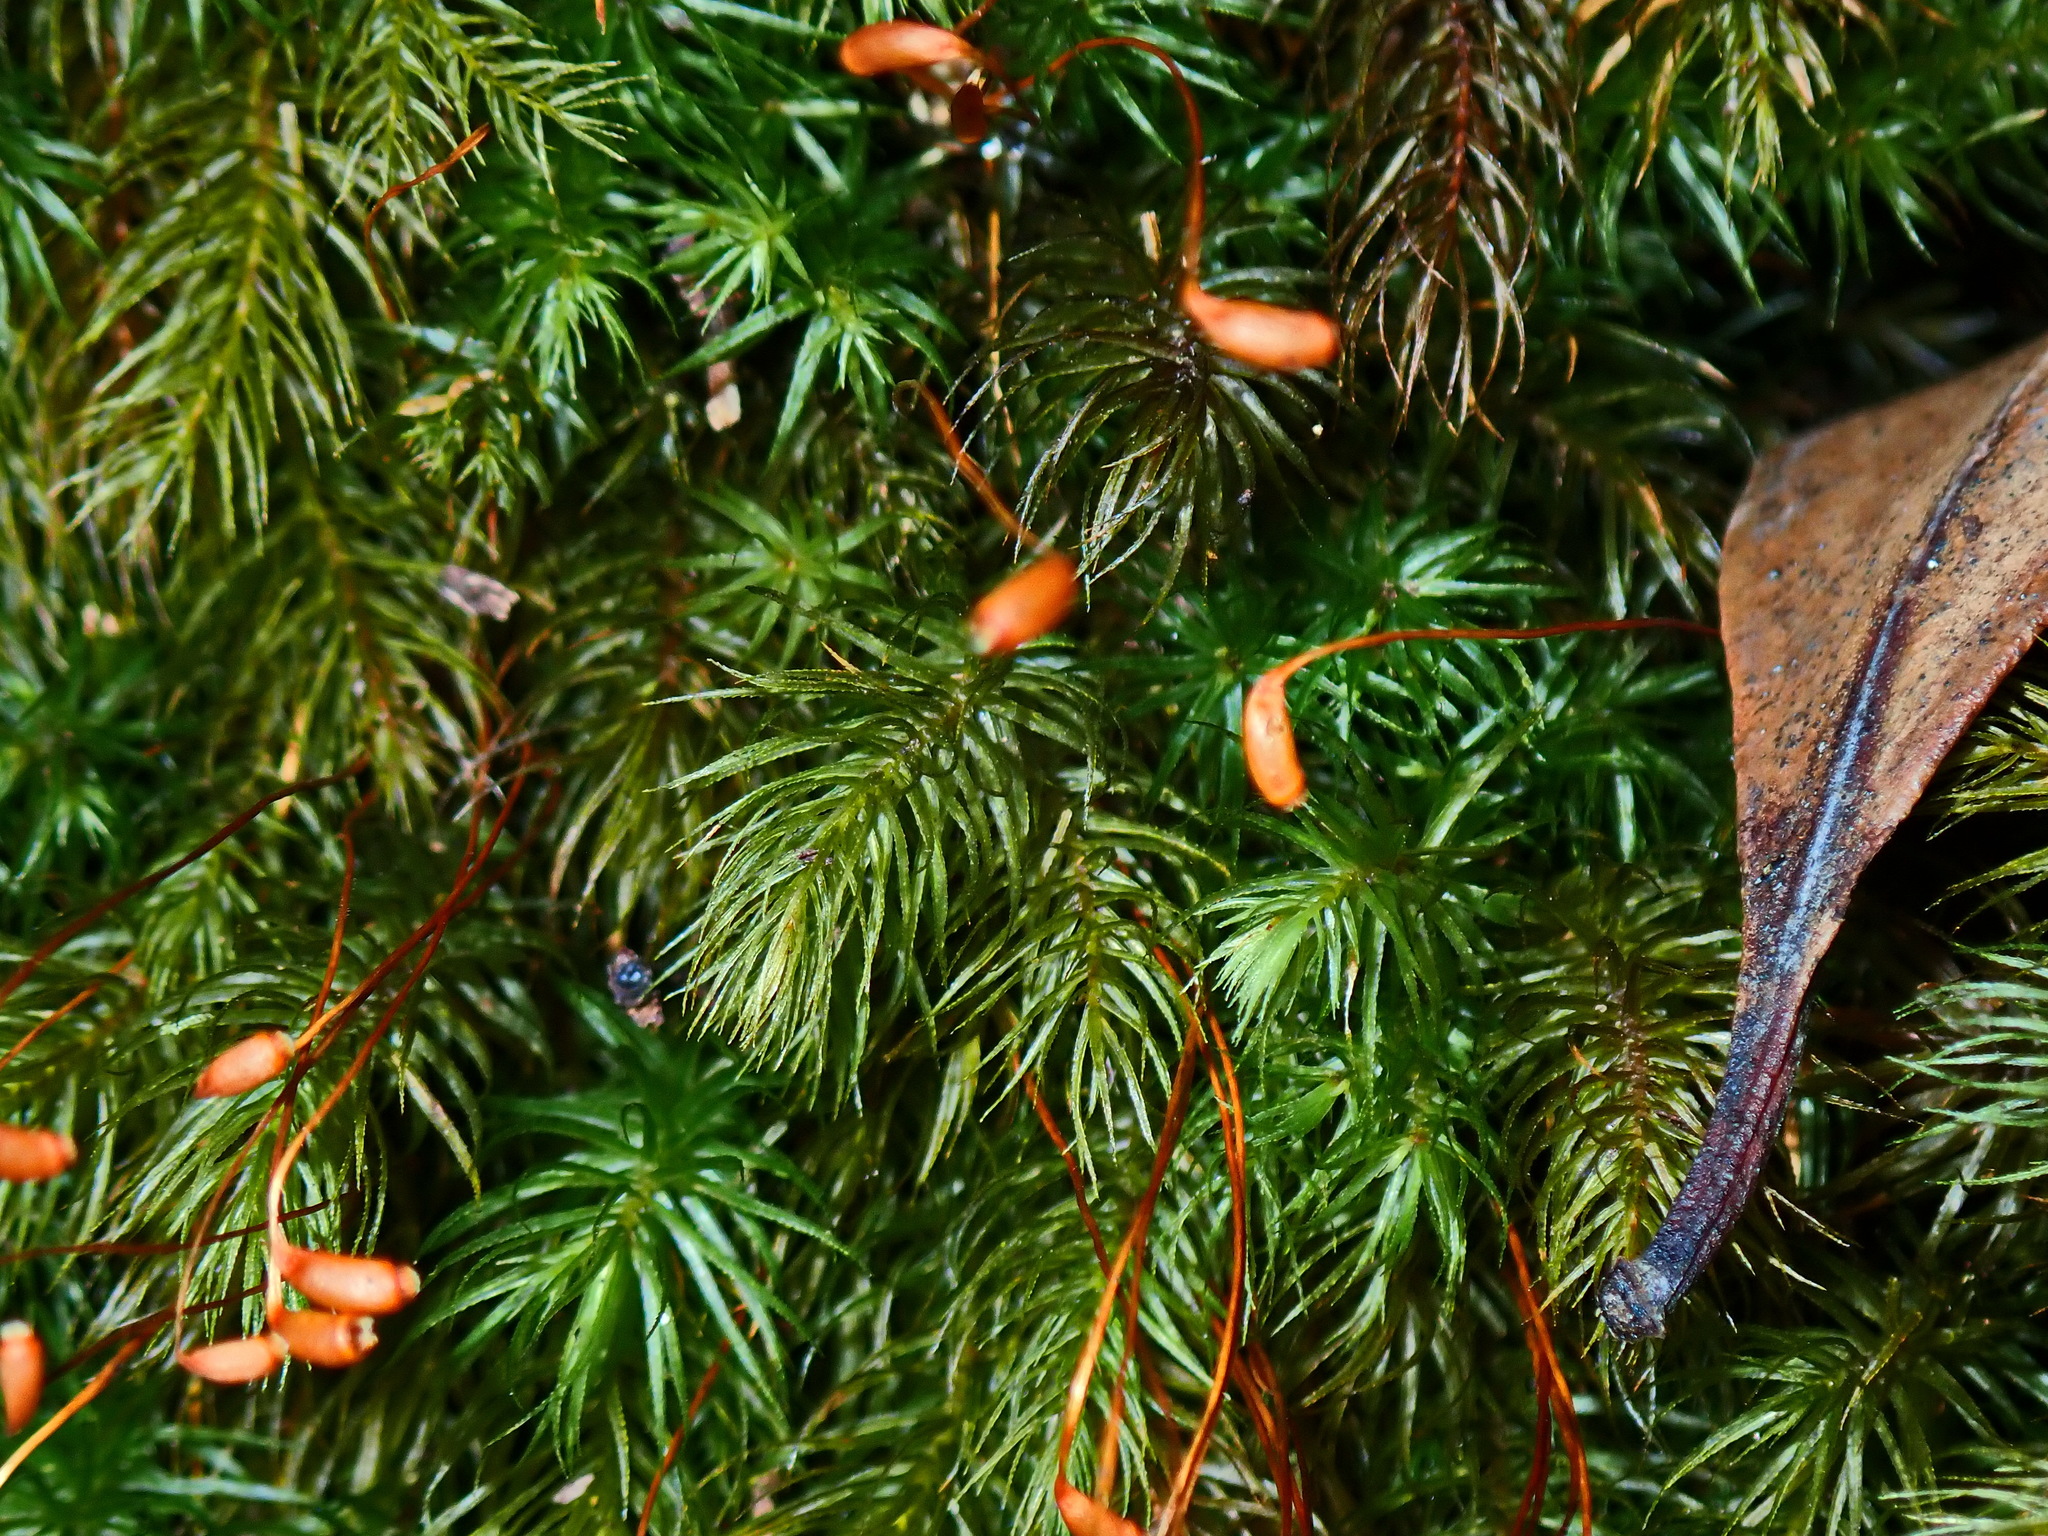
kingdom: Plantae
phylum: Bryophyta
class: Bryopsida
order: Rhizogoniales
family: Calomniaceae
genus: Pyrrhobryum
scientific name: Pyrrhobryum spiniforme
